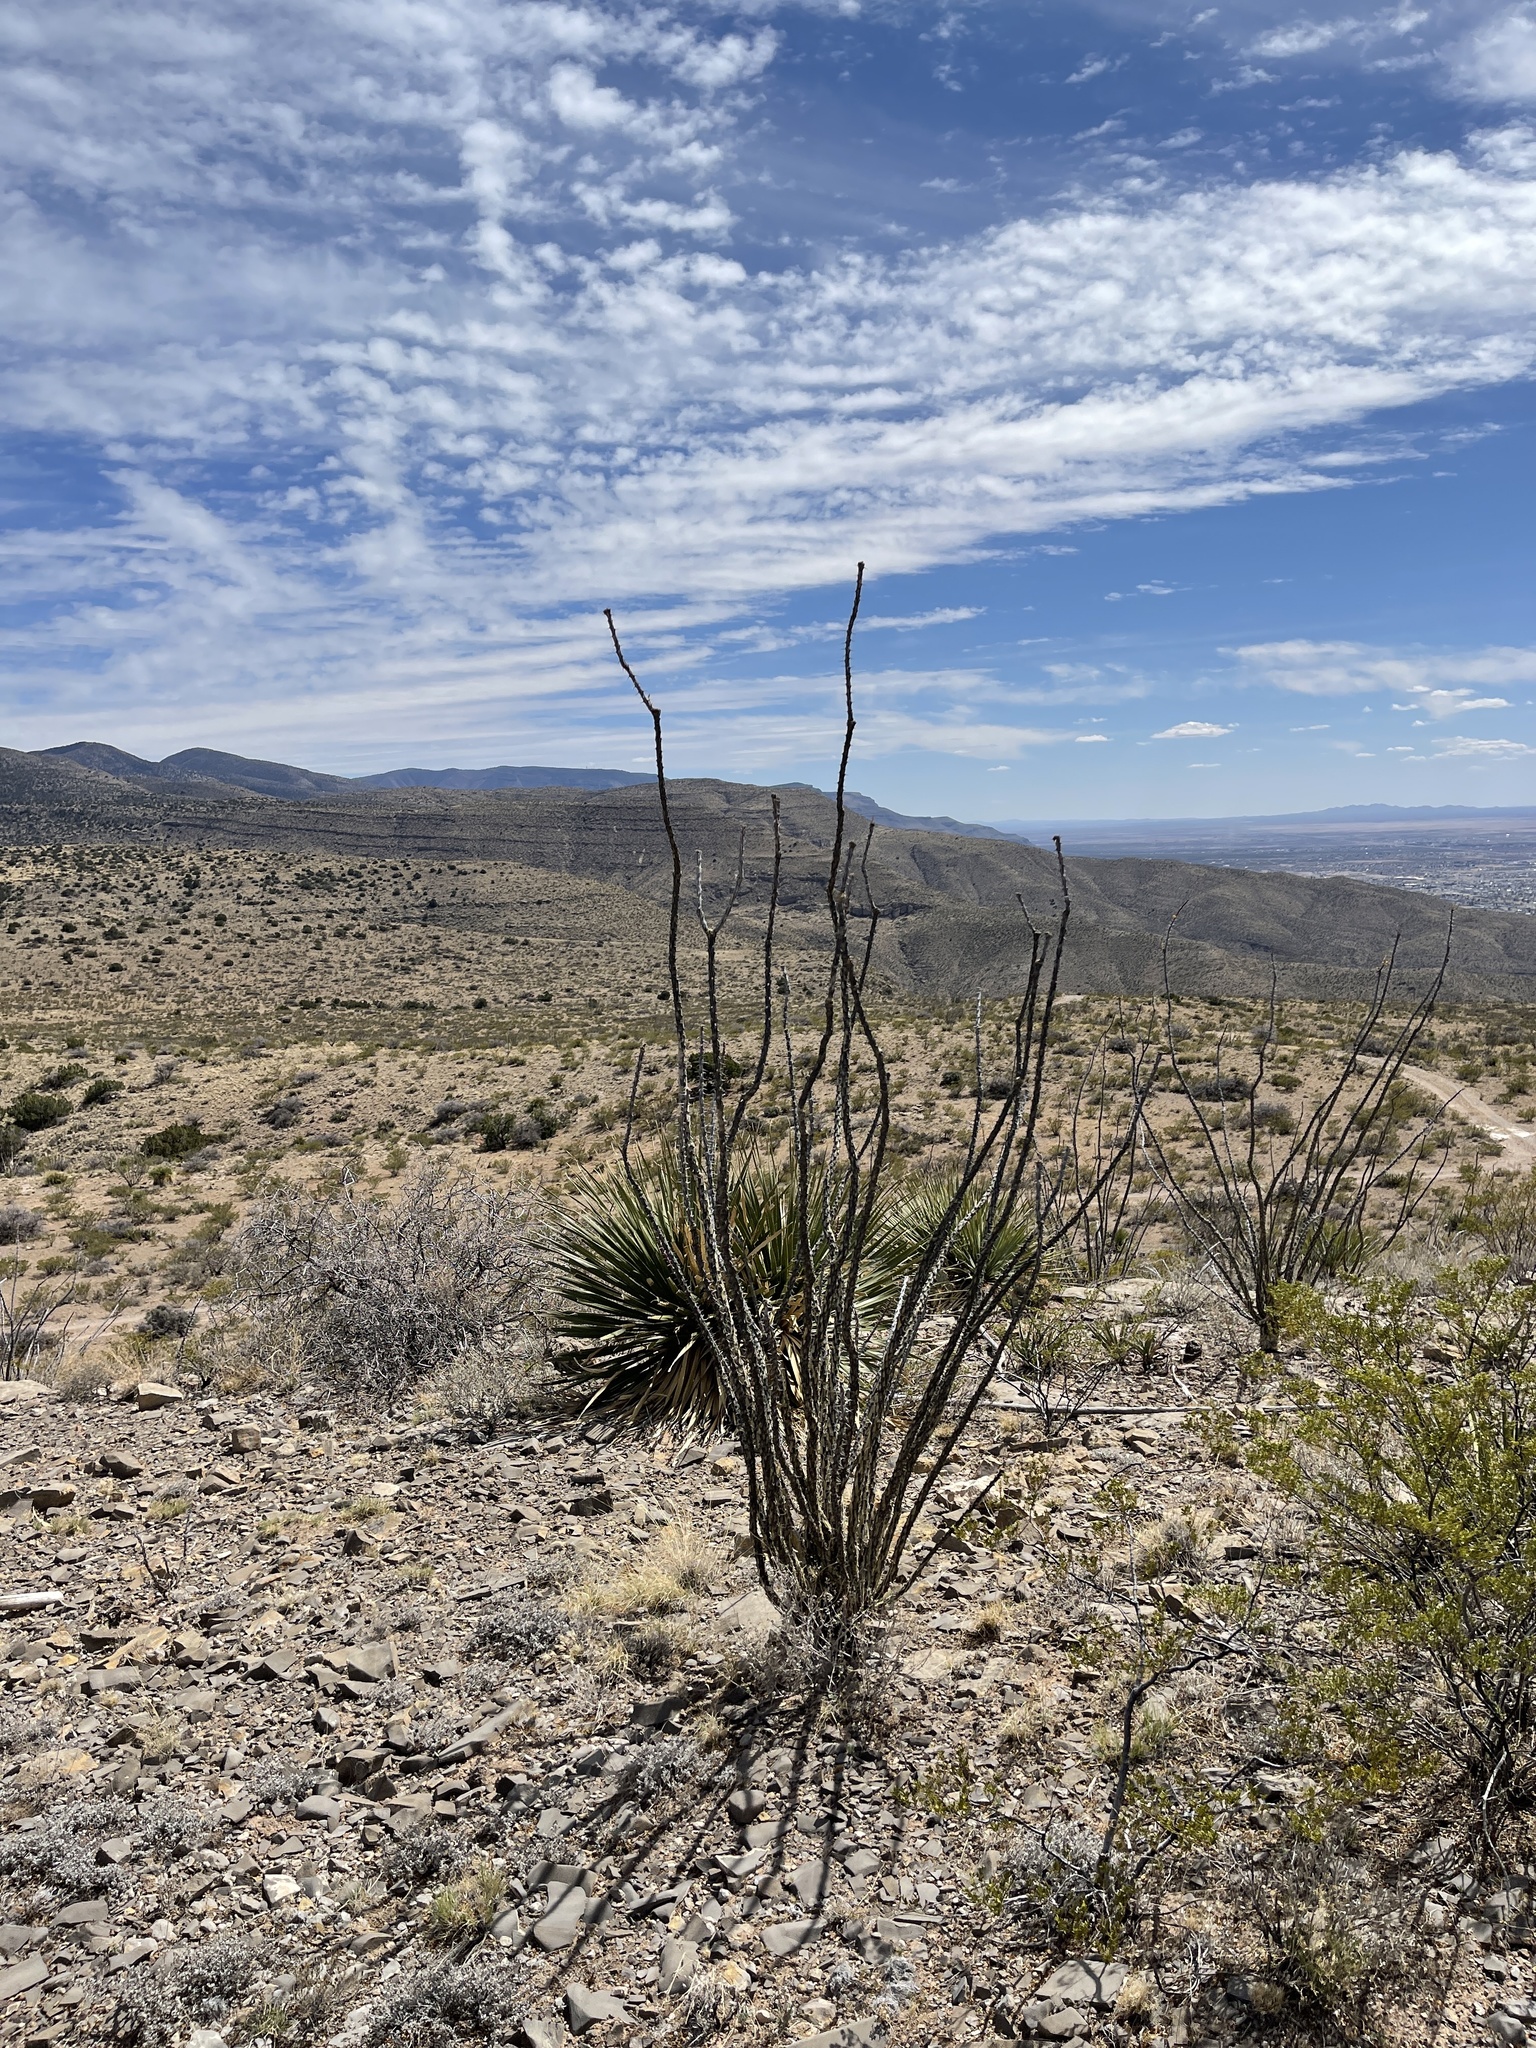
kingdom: Plantae
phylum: Tracheophyta
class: Magnoliopsida
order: Ericales
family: Fouquieriaceae
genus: Fouquieria
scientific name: Fouquieria splendens
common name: Vine-cactus
